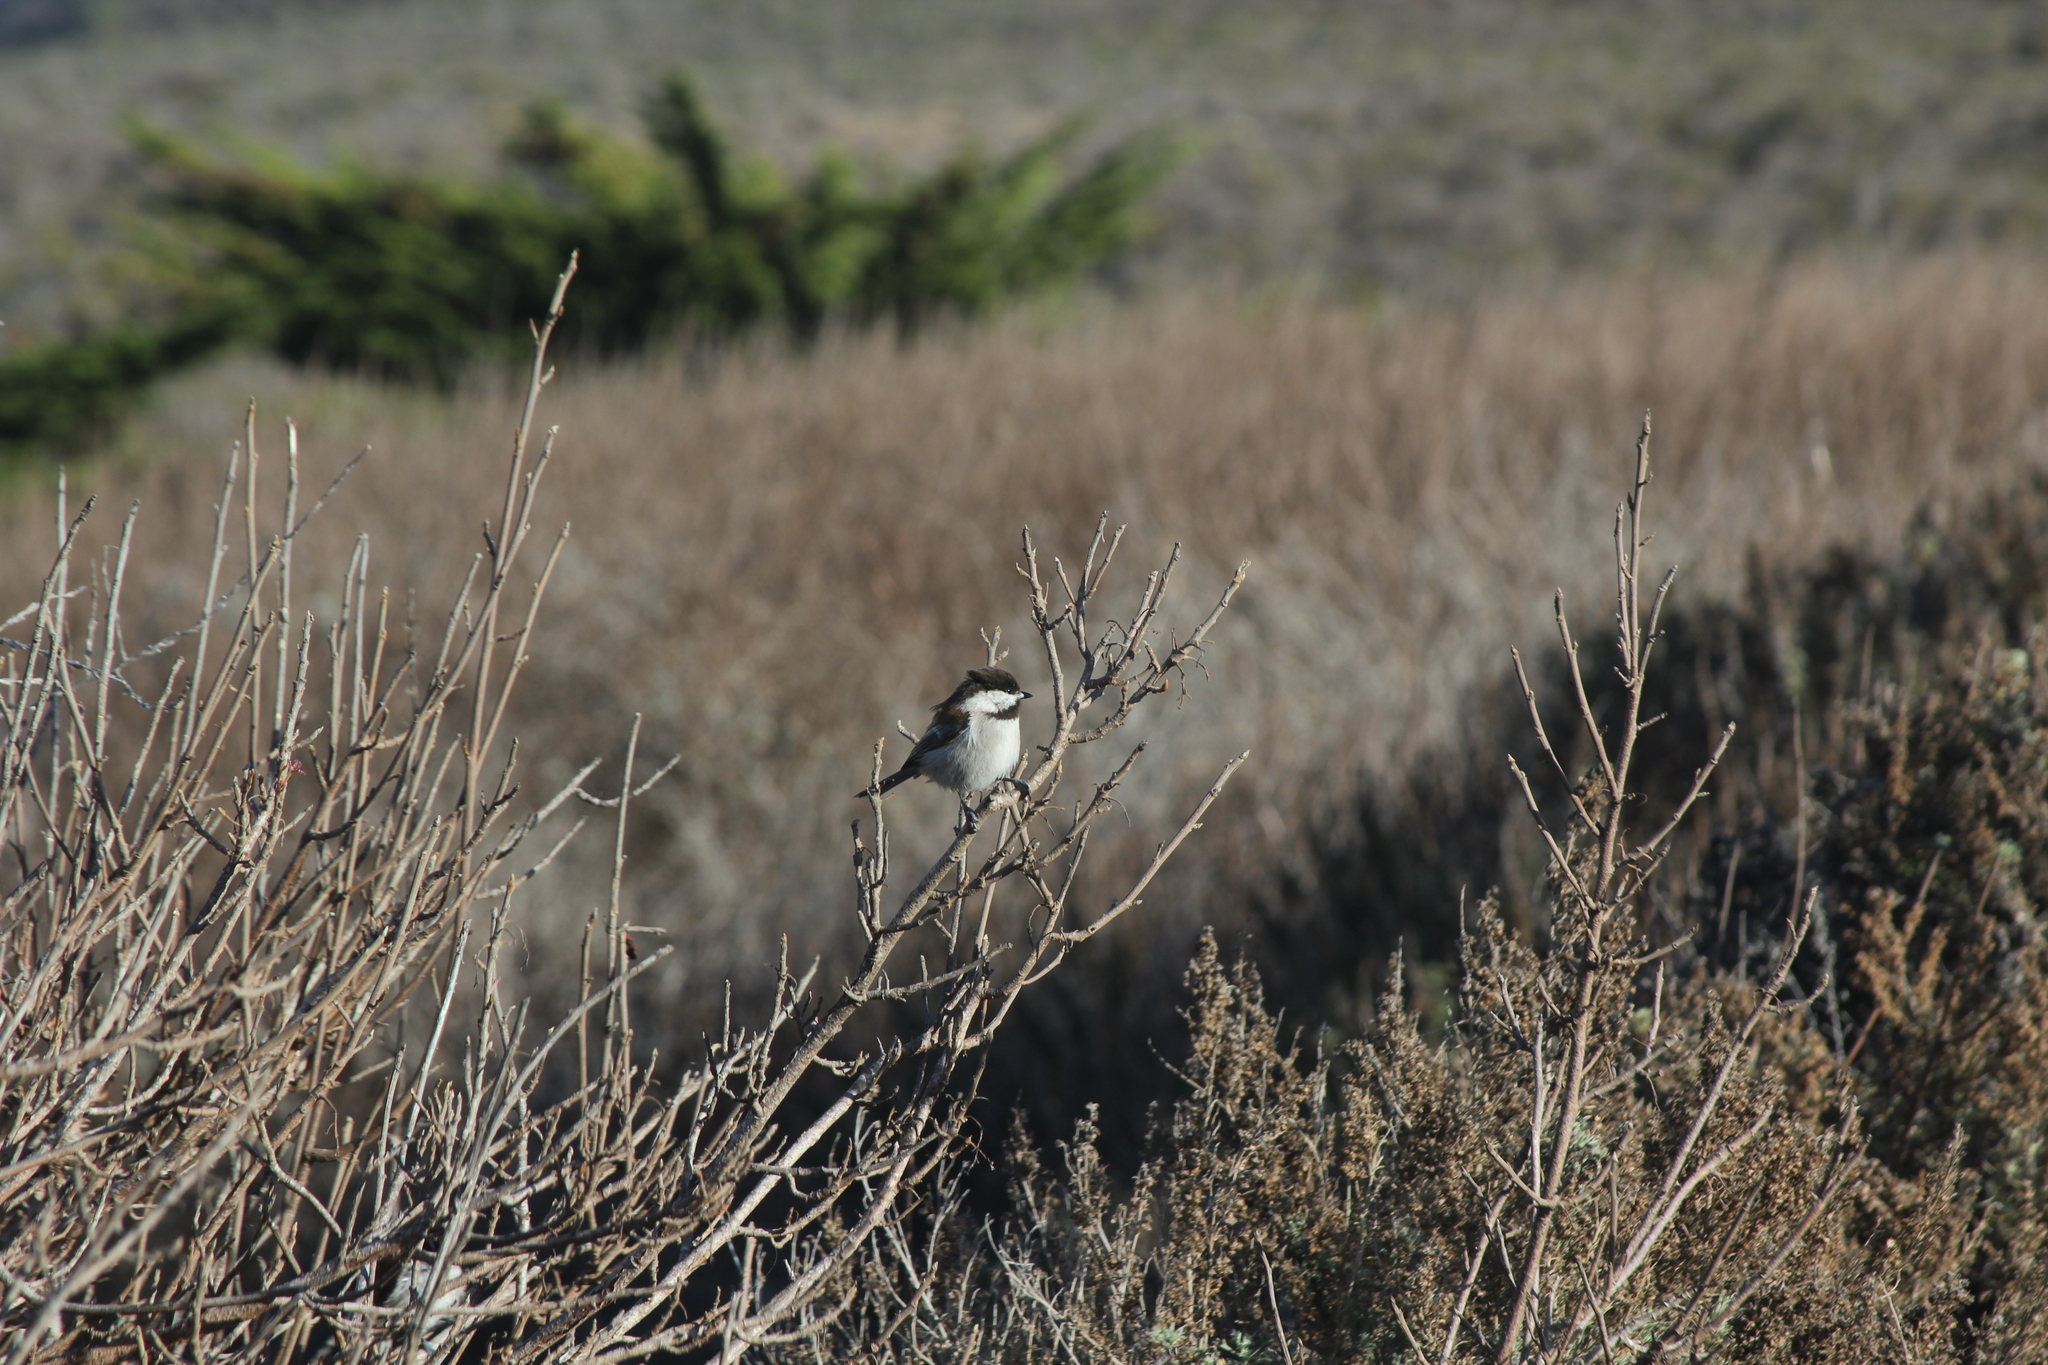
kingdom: Animalia
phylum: Chordata
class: Aves
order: Passeriformes
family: Paridae
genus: Poecile
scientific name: Poecile rufescens
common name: Chestnut-backed chickadee
